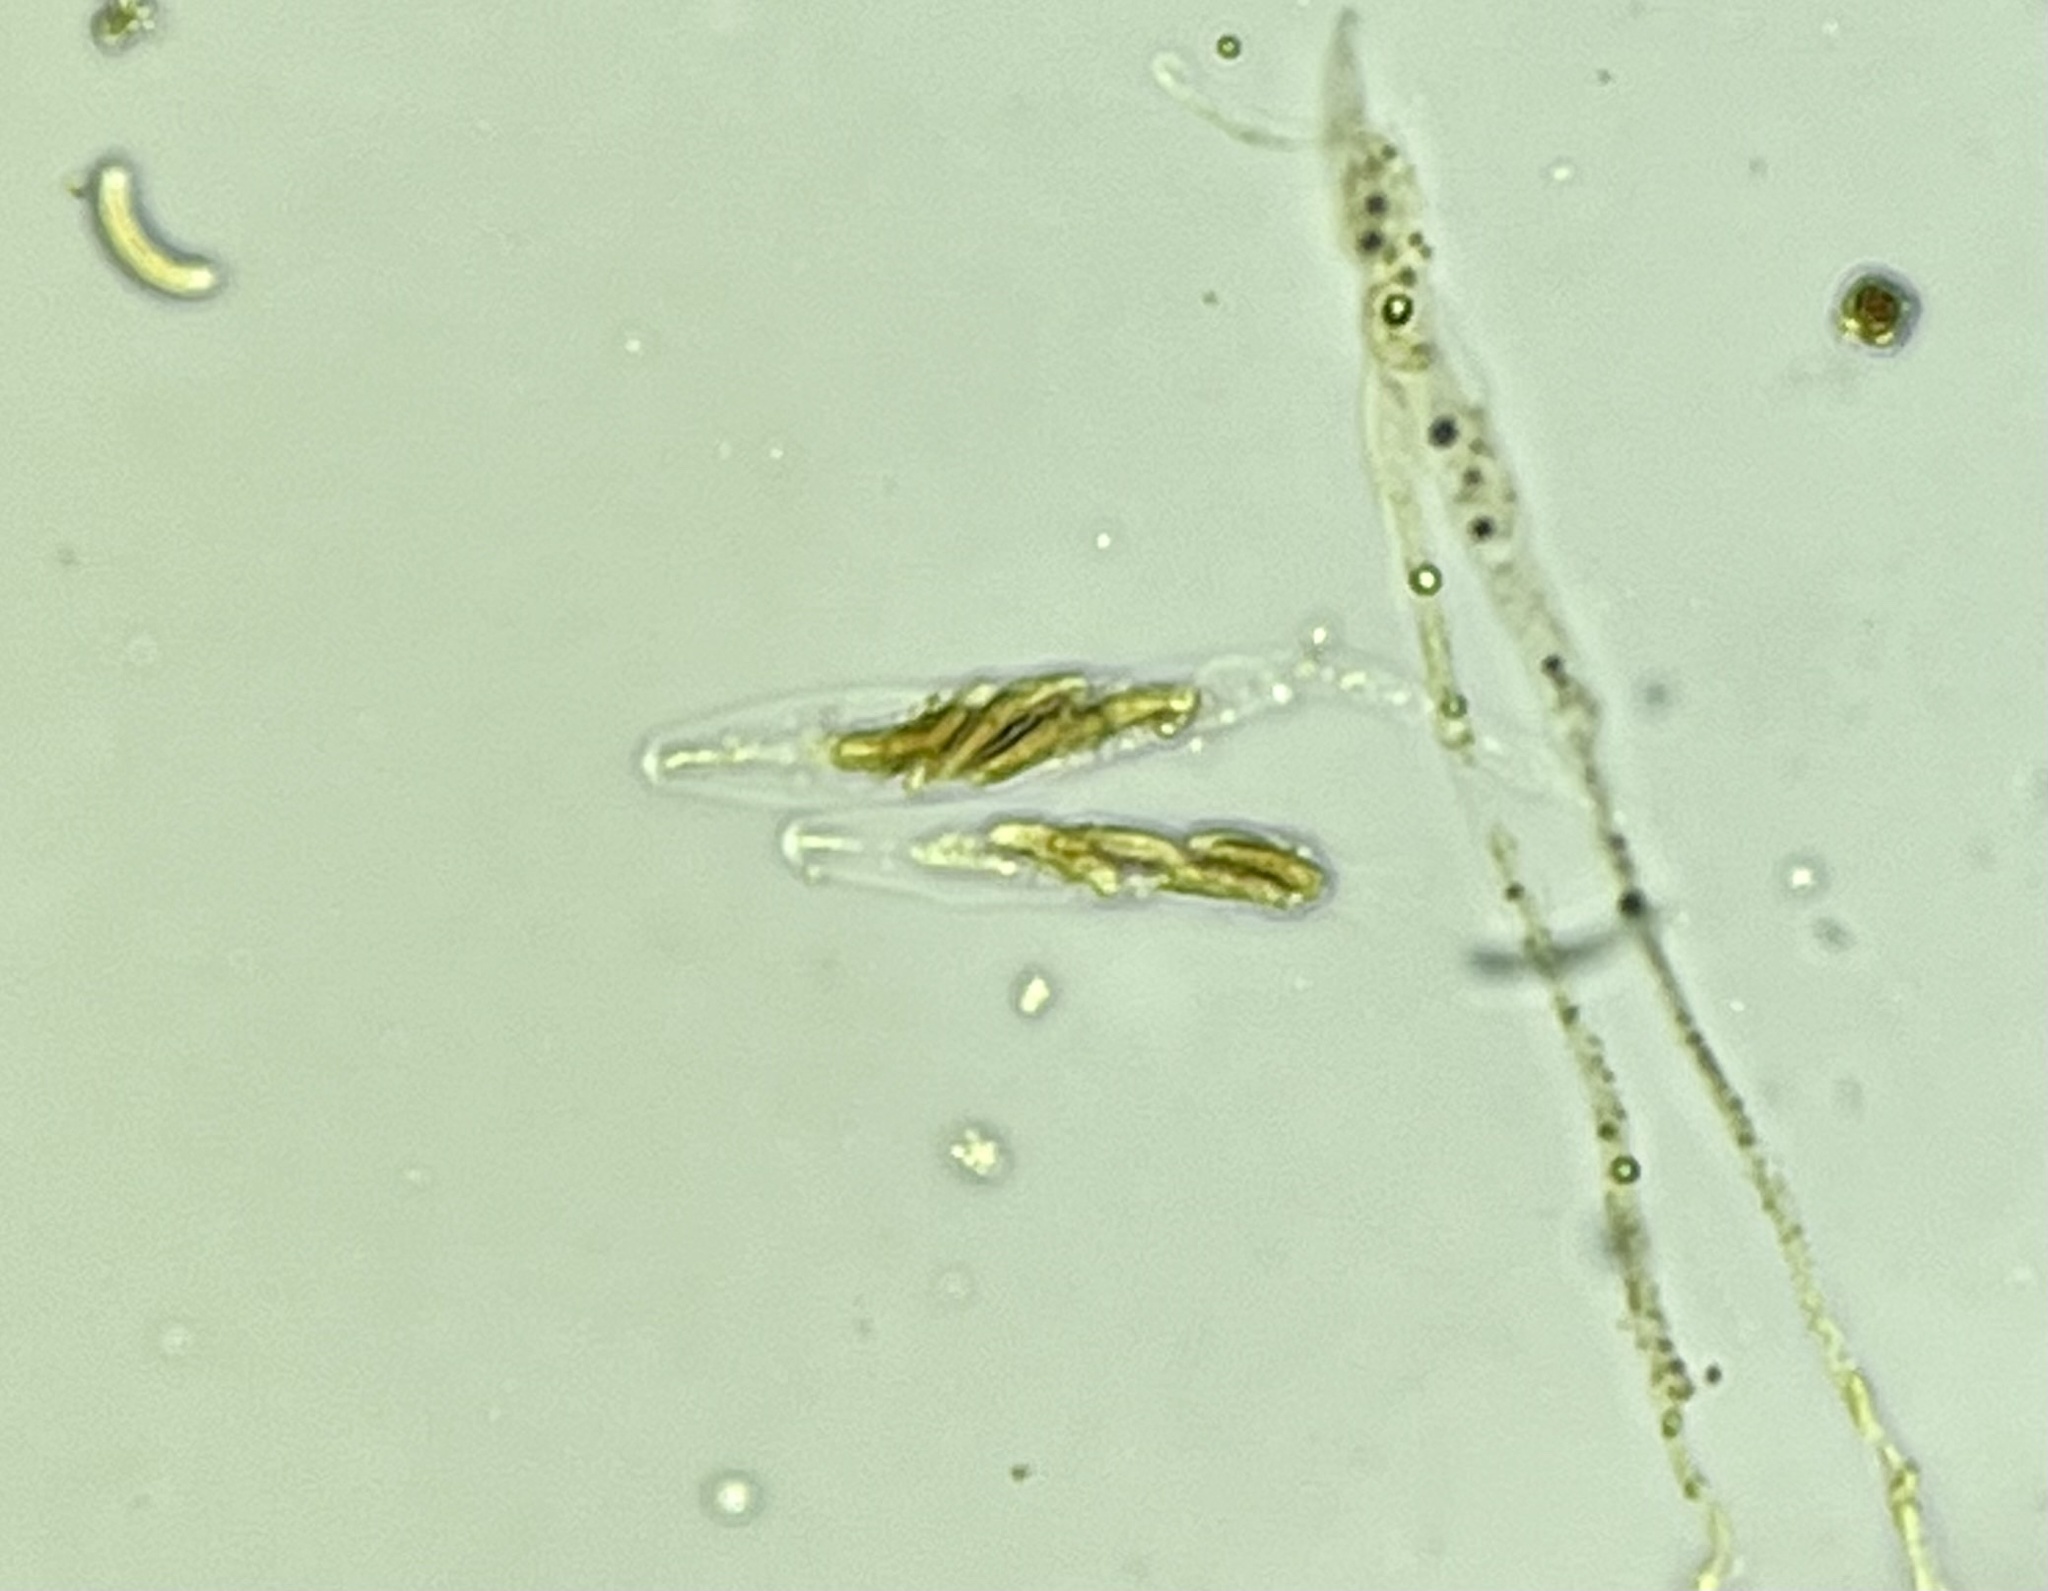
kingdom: Fungi
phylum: Ascomycota
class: Sordariomycetes
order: Xylariales
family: Diatrypaceae
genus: Cryptovalsa
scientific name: Cryptovalsa sassafras
